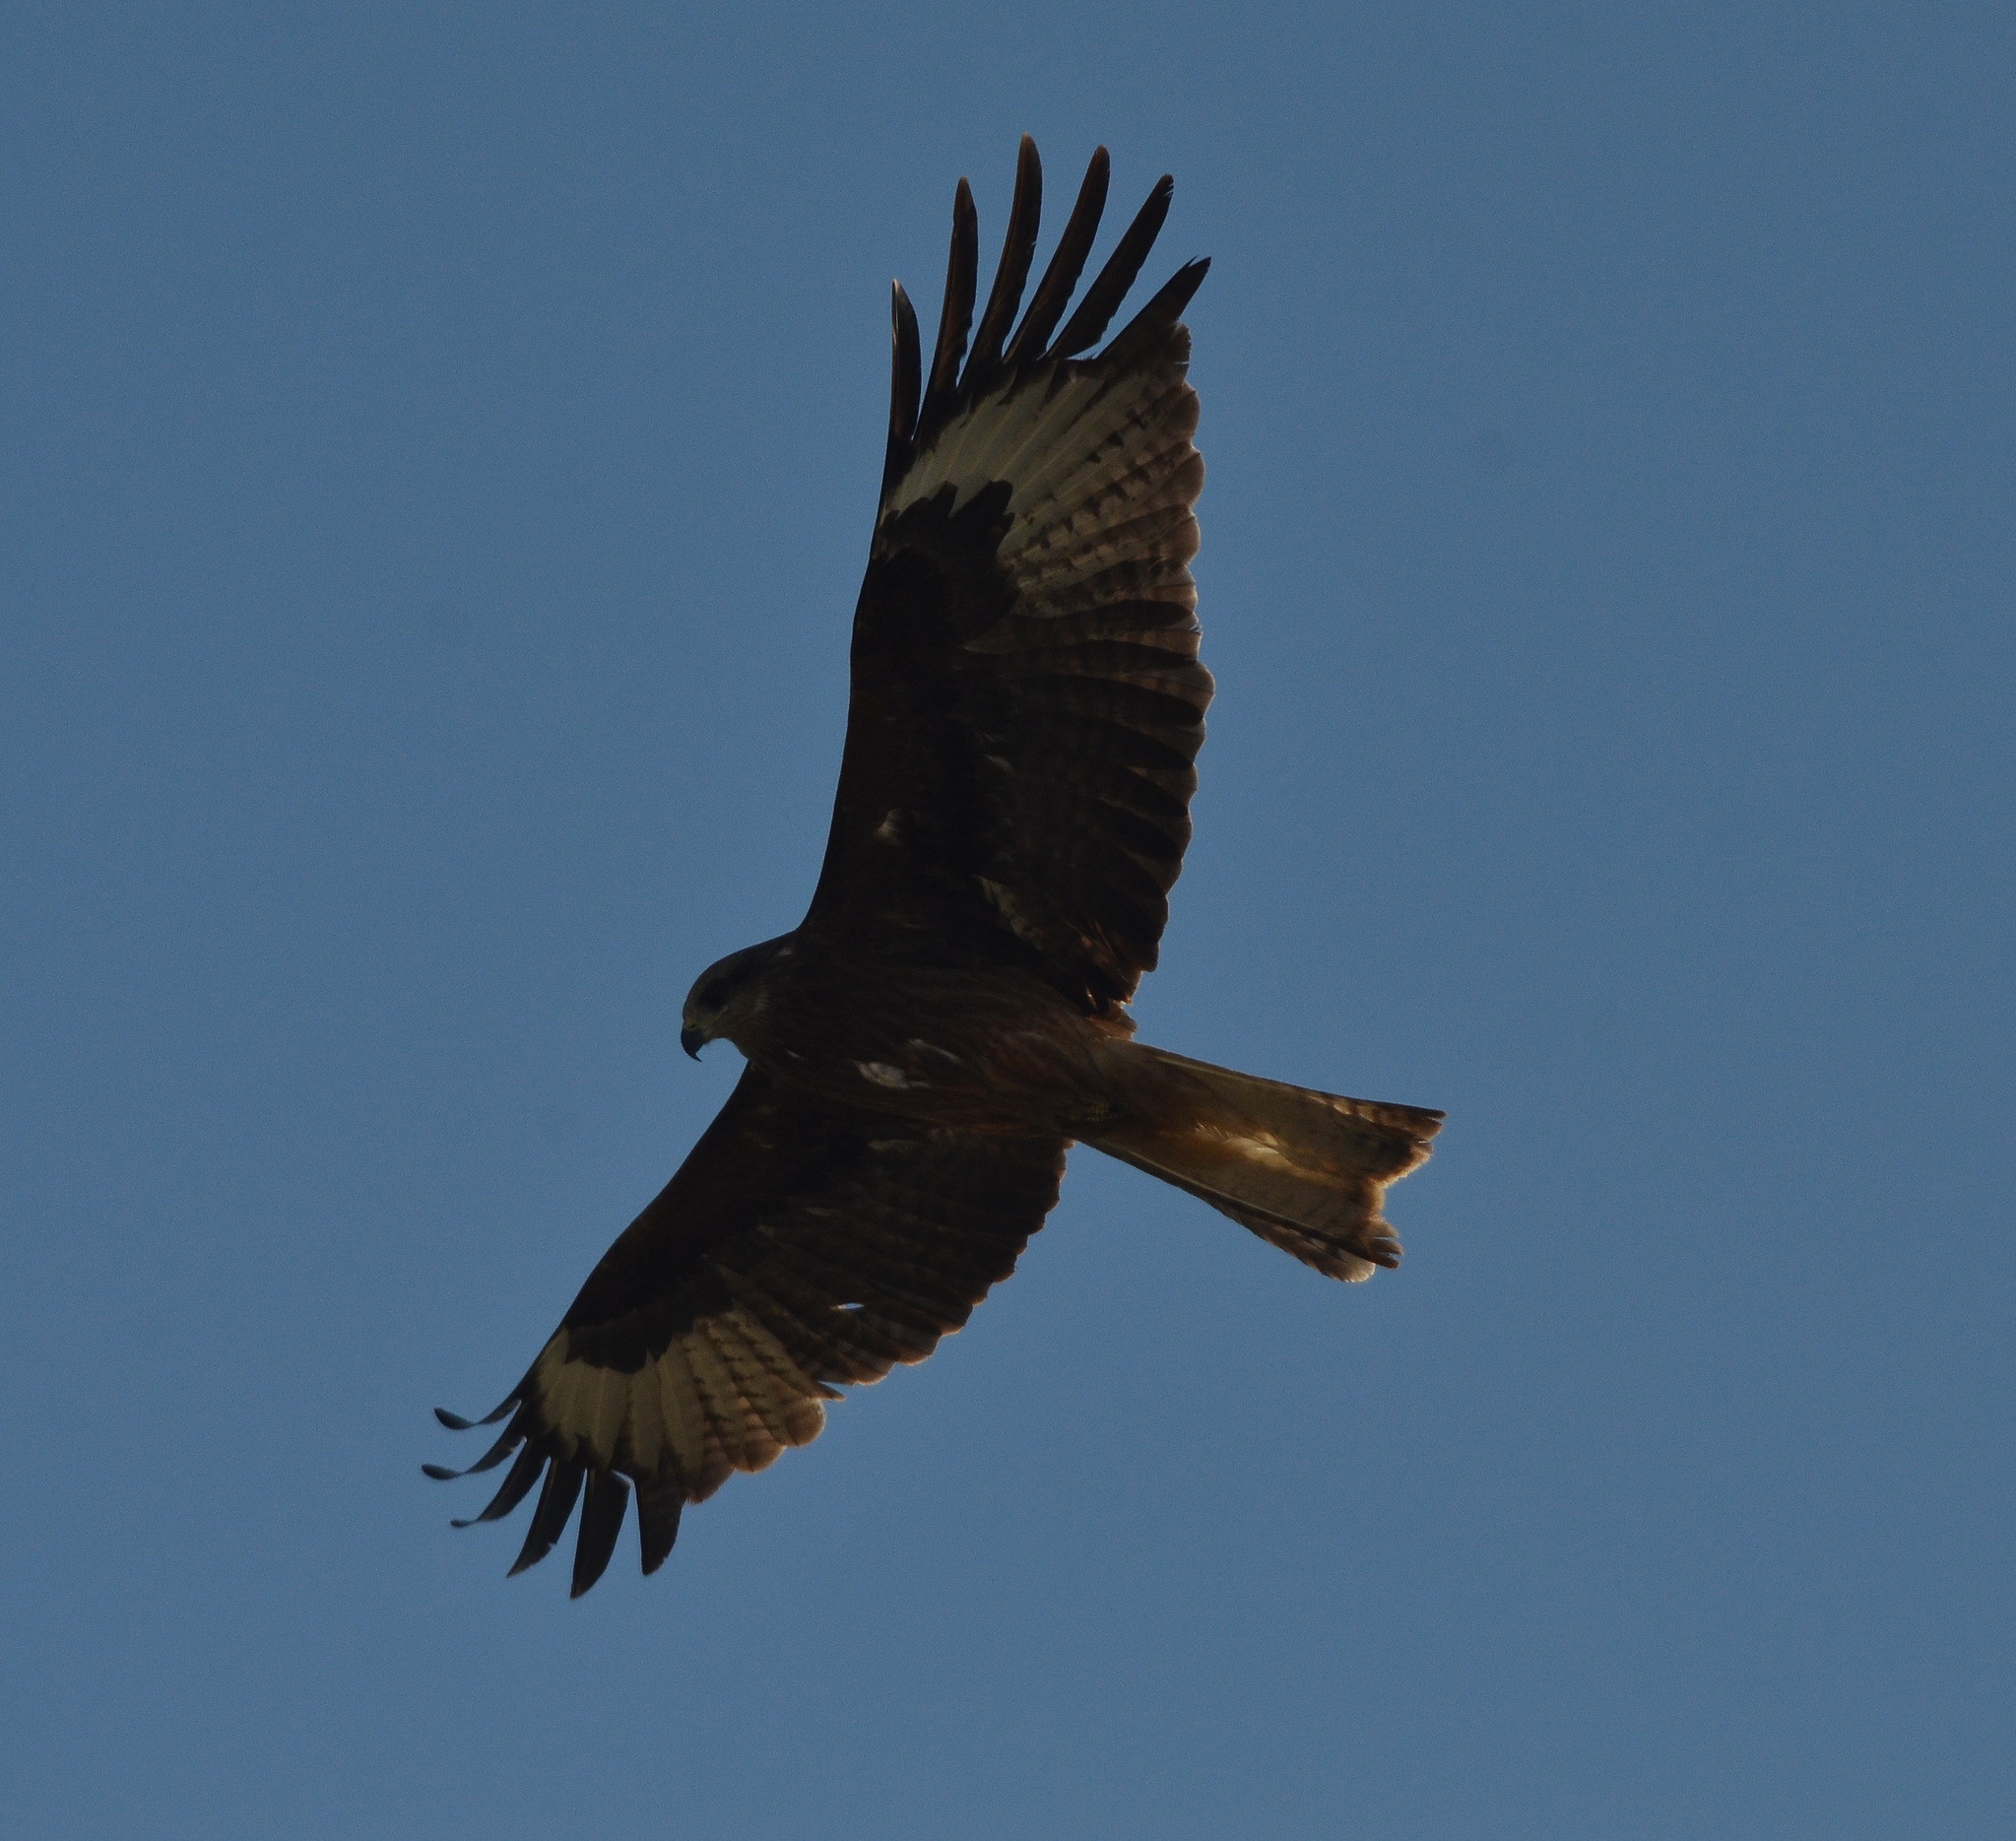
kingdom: Animalia
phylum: Chordata
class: Aves
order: Accipitriformes
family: Accipitridae
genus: Milvus
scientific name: Milvus migrans
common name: Black kite
